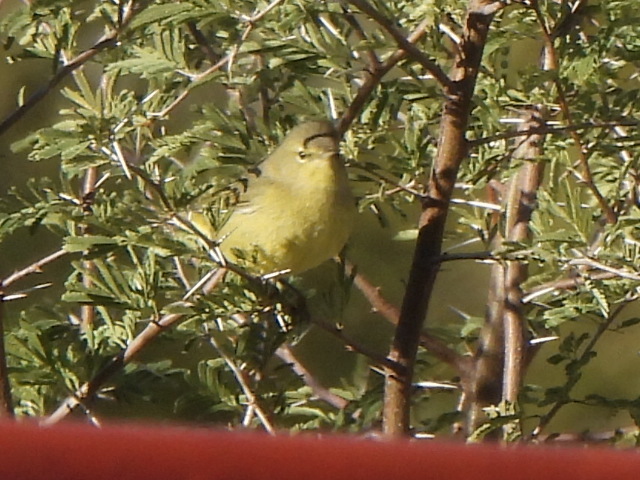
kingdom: Animalia
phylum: Chordata
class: Aves
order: Passeriformes
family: Parulidae
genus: Leiothlypis
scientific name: Leiothlypis celata
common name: Orange-crowned warbler
